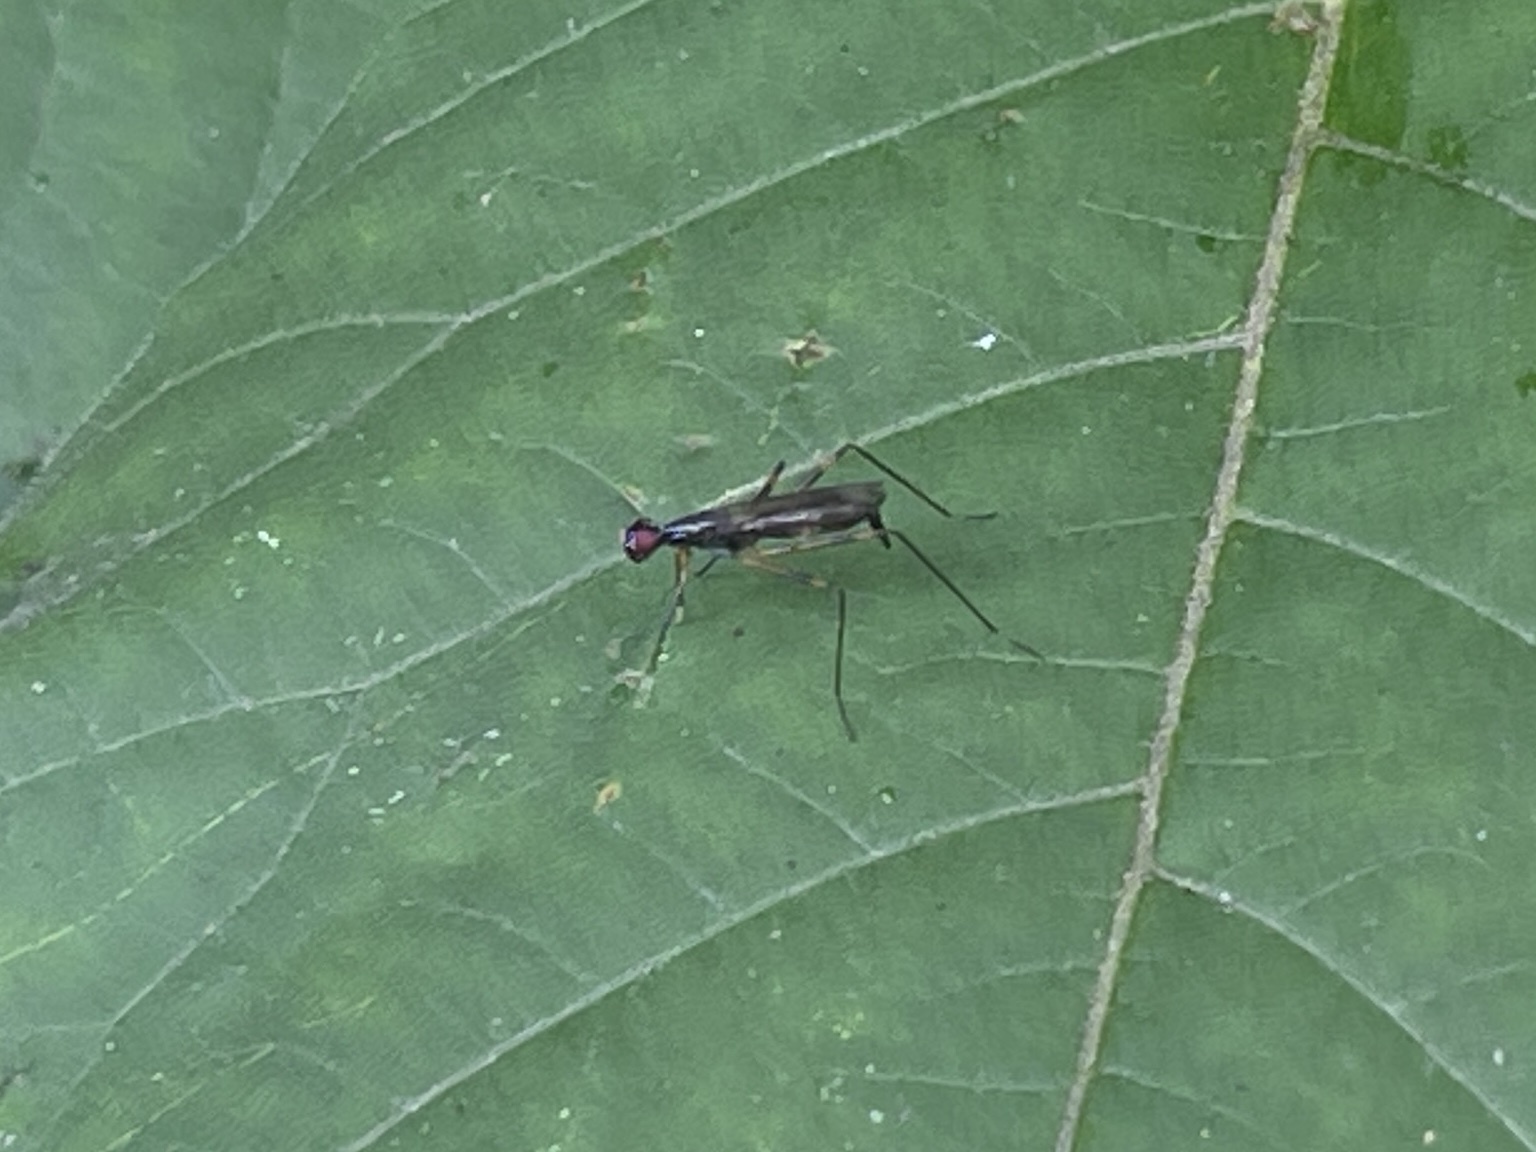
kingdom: Animalia
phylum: Arthropoda
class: Insecta
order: Diptera
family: Micropezidae
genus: Rainieria
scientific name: Rainieria antennaepes
